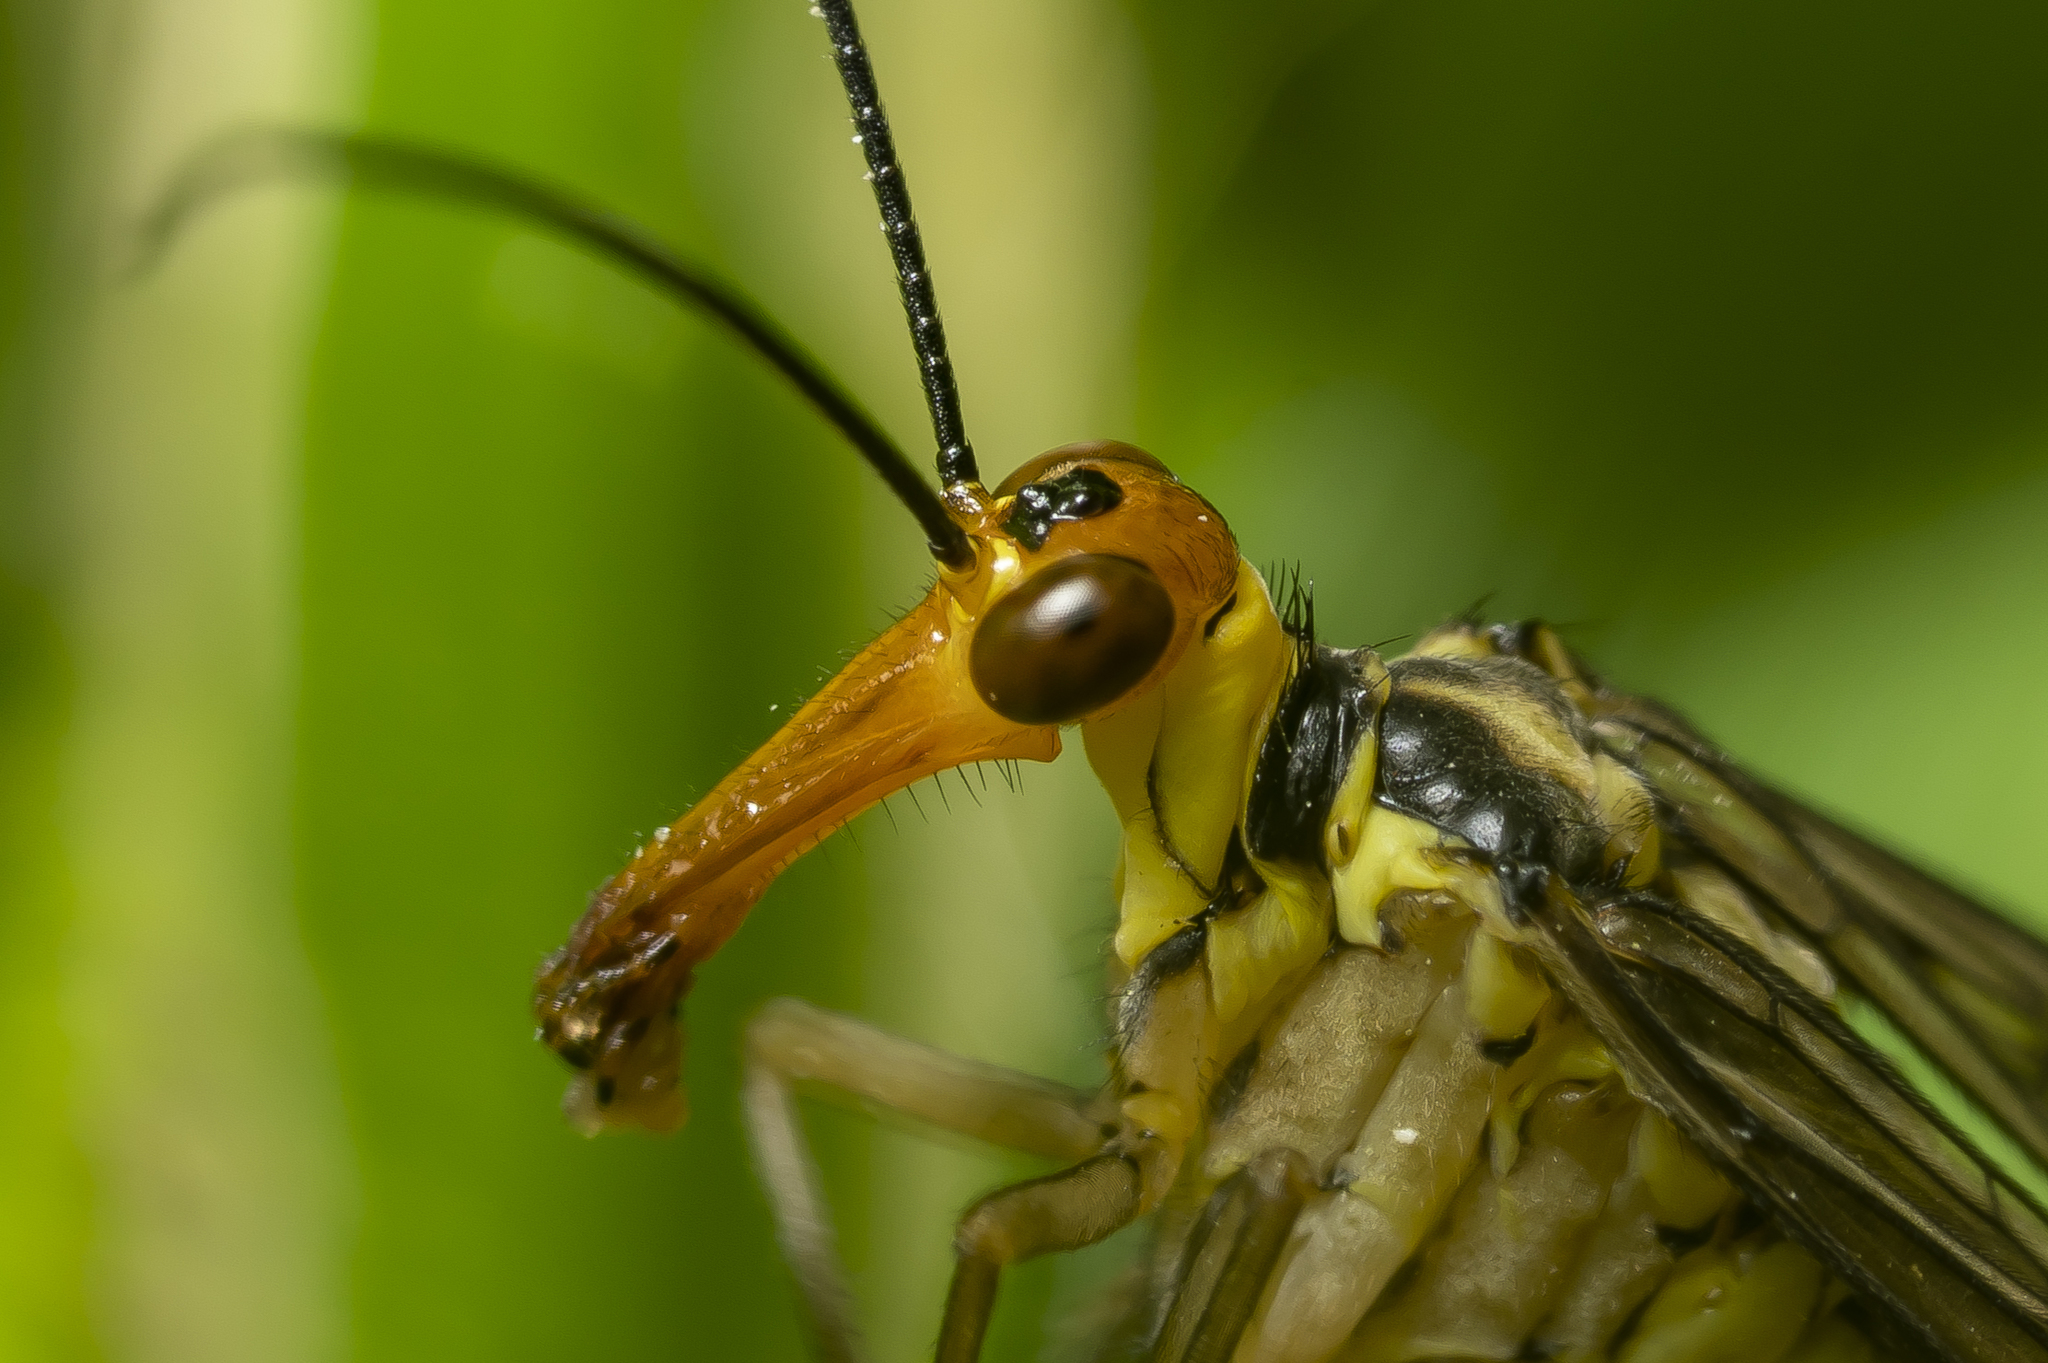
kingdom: Animalia
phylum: Arthropoda
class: Insecta
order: Mecoptera
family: Panorpidae
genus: Panorpa
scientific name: Panorpa lacedaemonia
